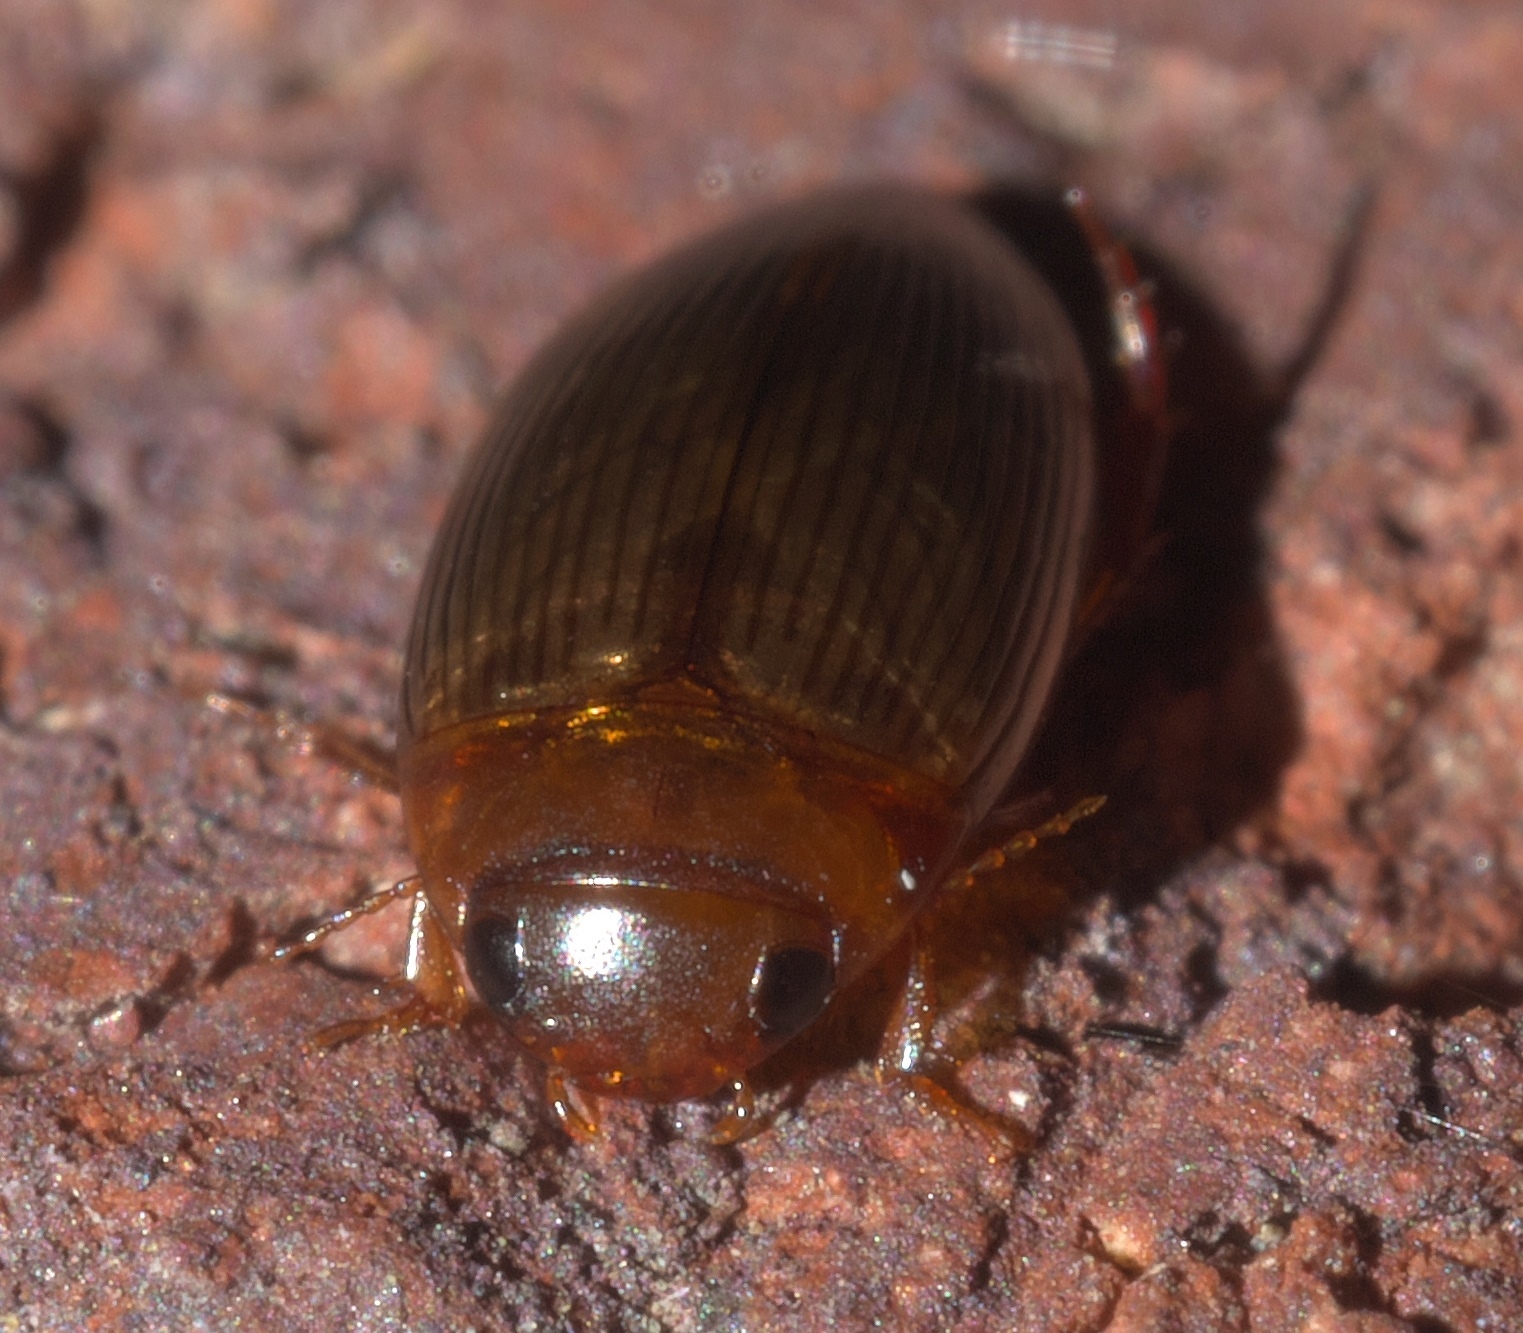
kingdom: Animalia
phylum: Arthropoda
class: Insecta
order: Coleoptera
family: Dytiscidae
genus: Copelatus
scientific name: Copelatus glyphicus
